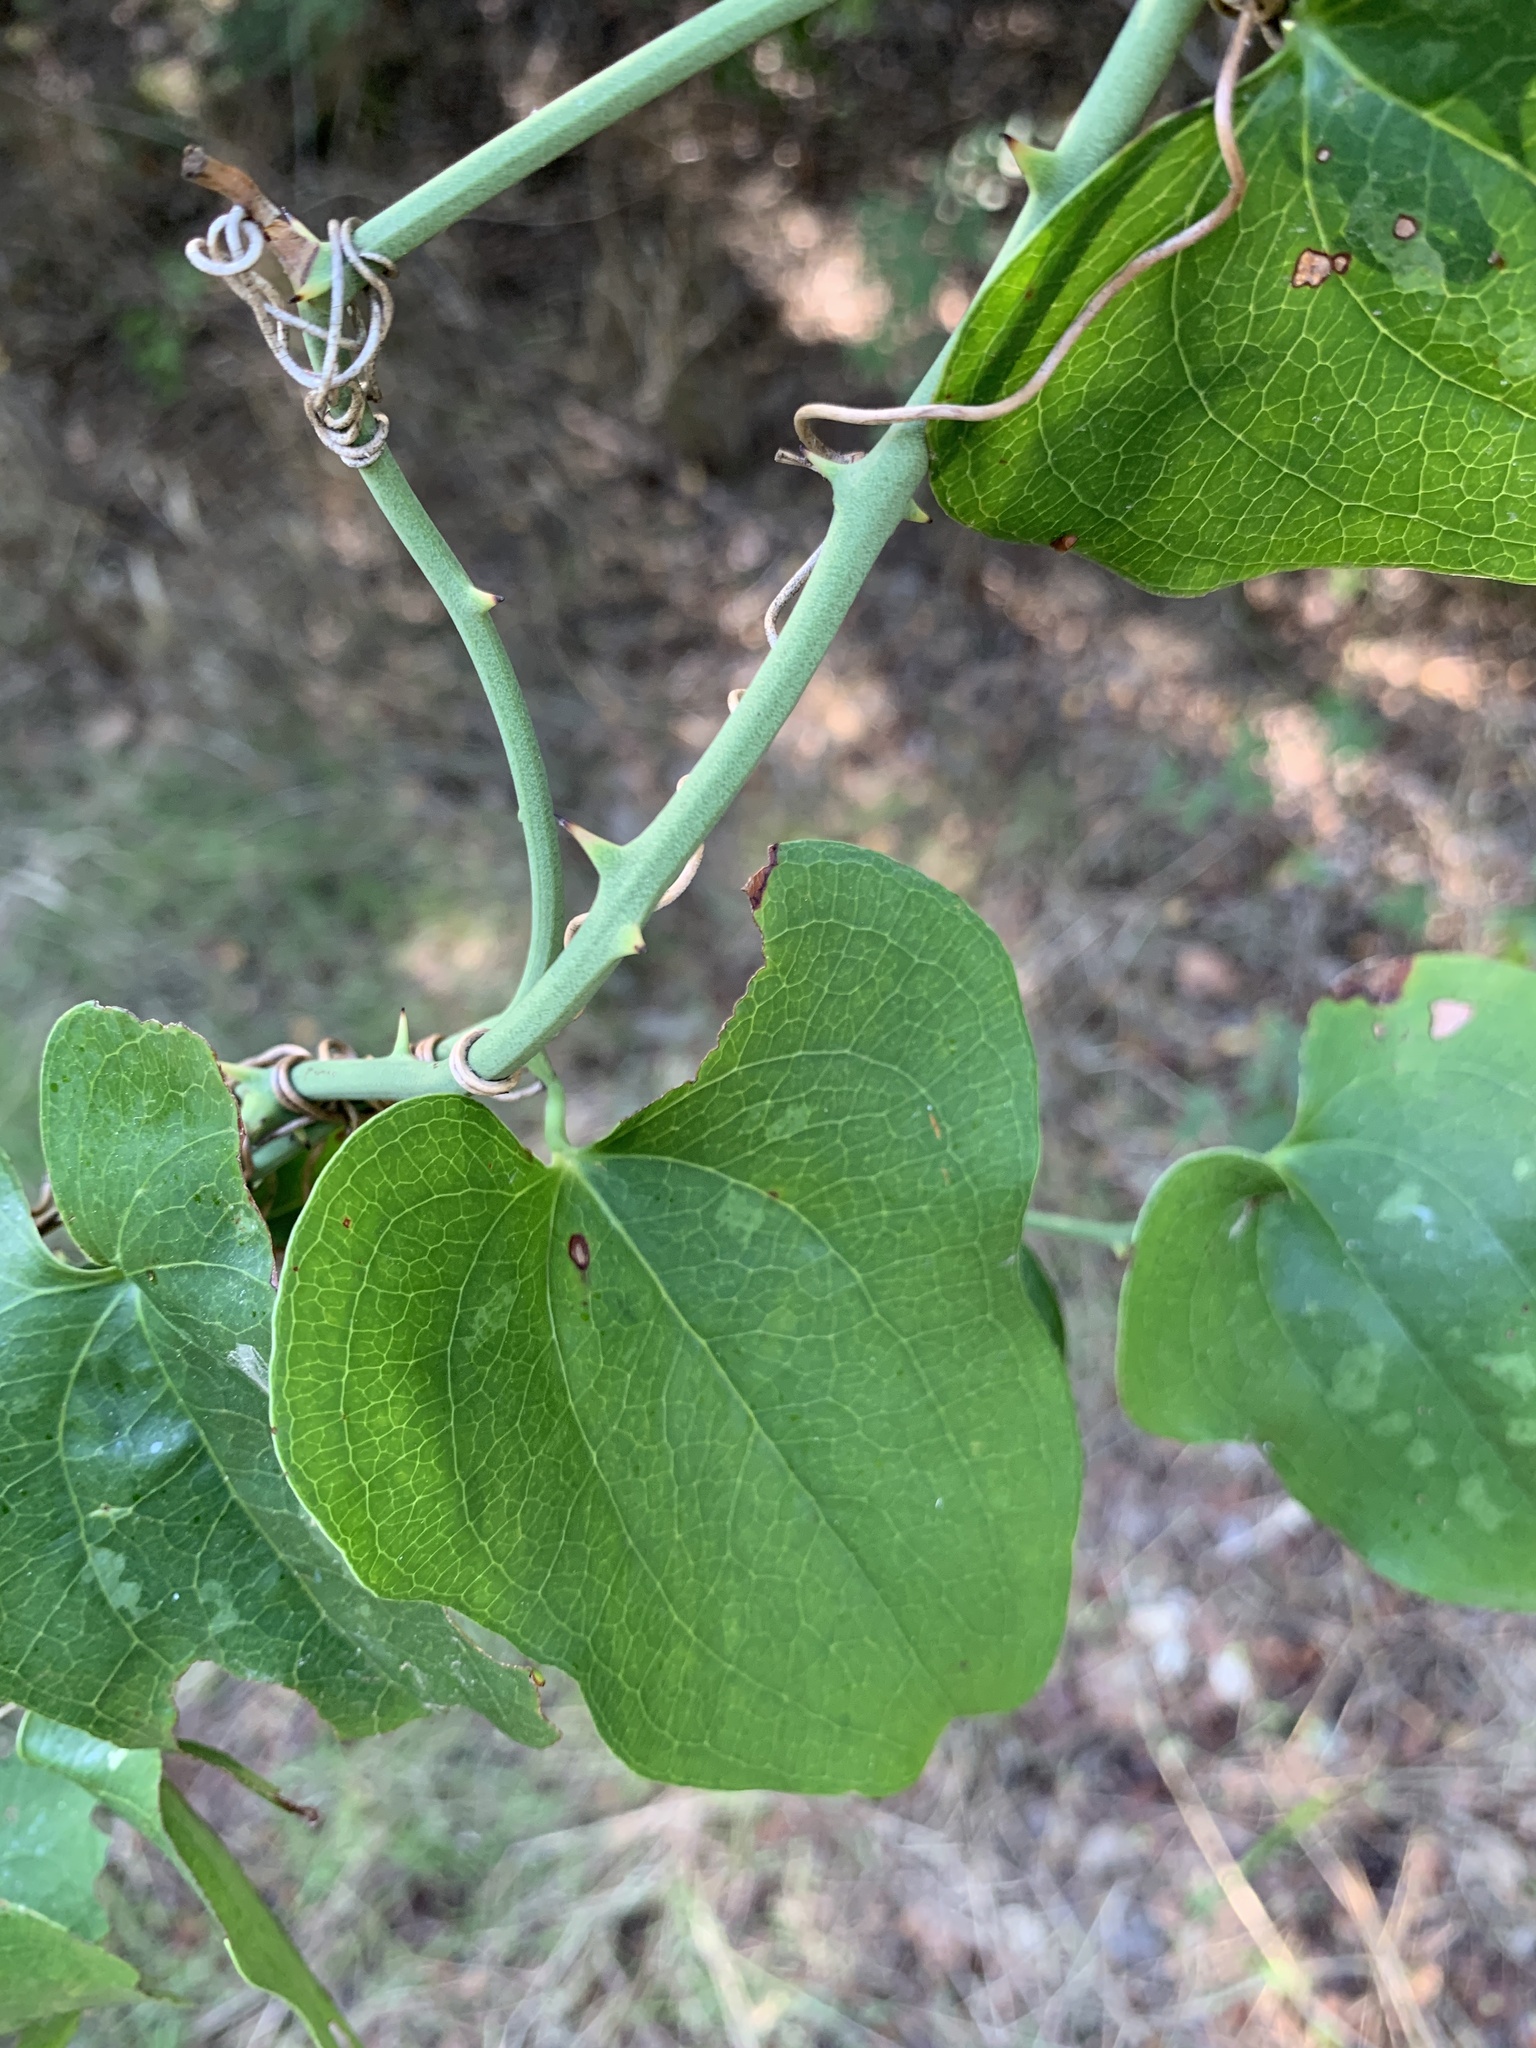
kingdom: Plantae
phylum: Tracheophyta
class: Liliopsida
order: Liliales
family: Smilacaceae
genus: Smilax
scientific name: Smilax bona-nox
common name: Catbrier
